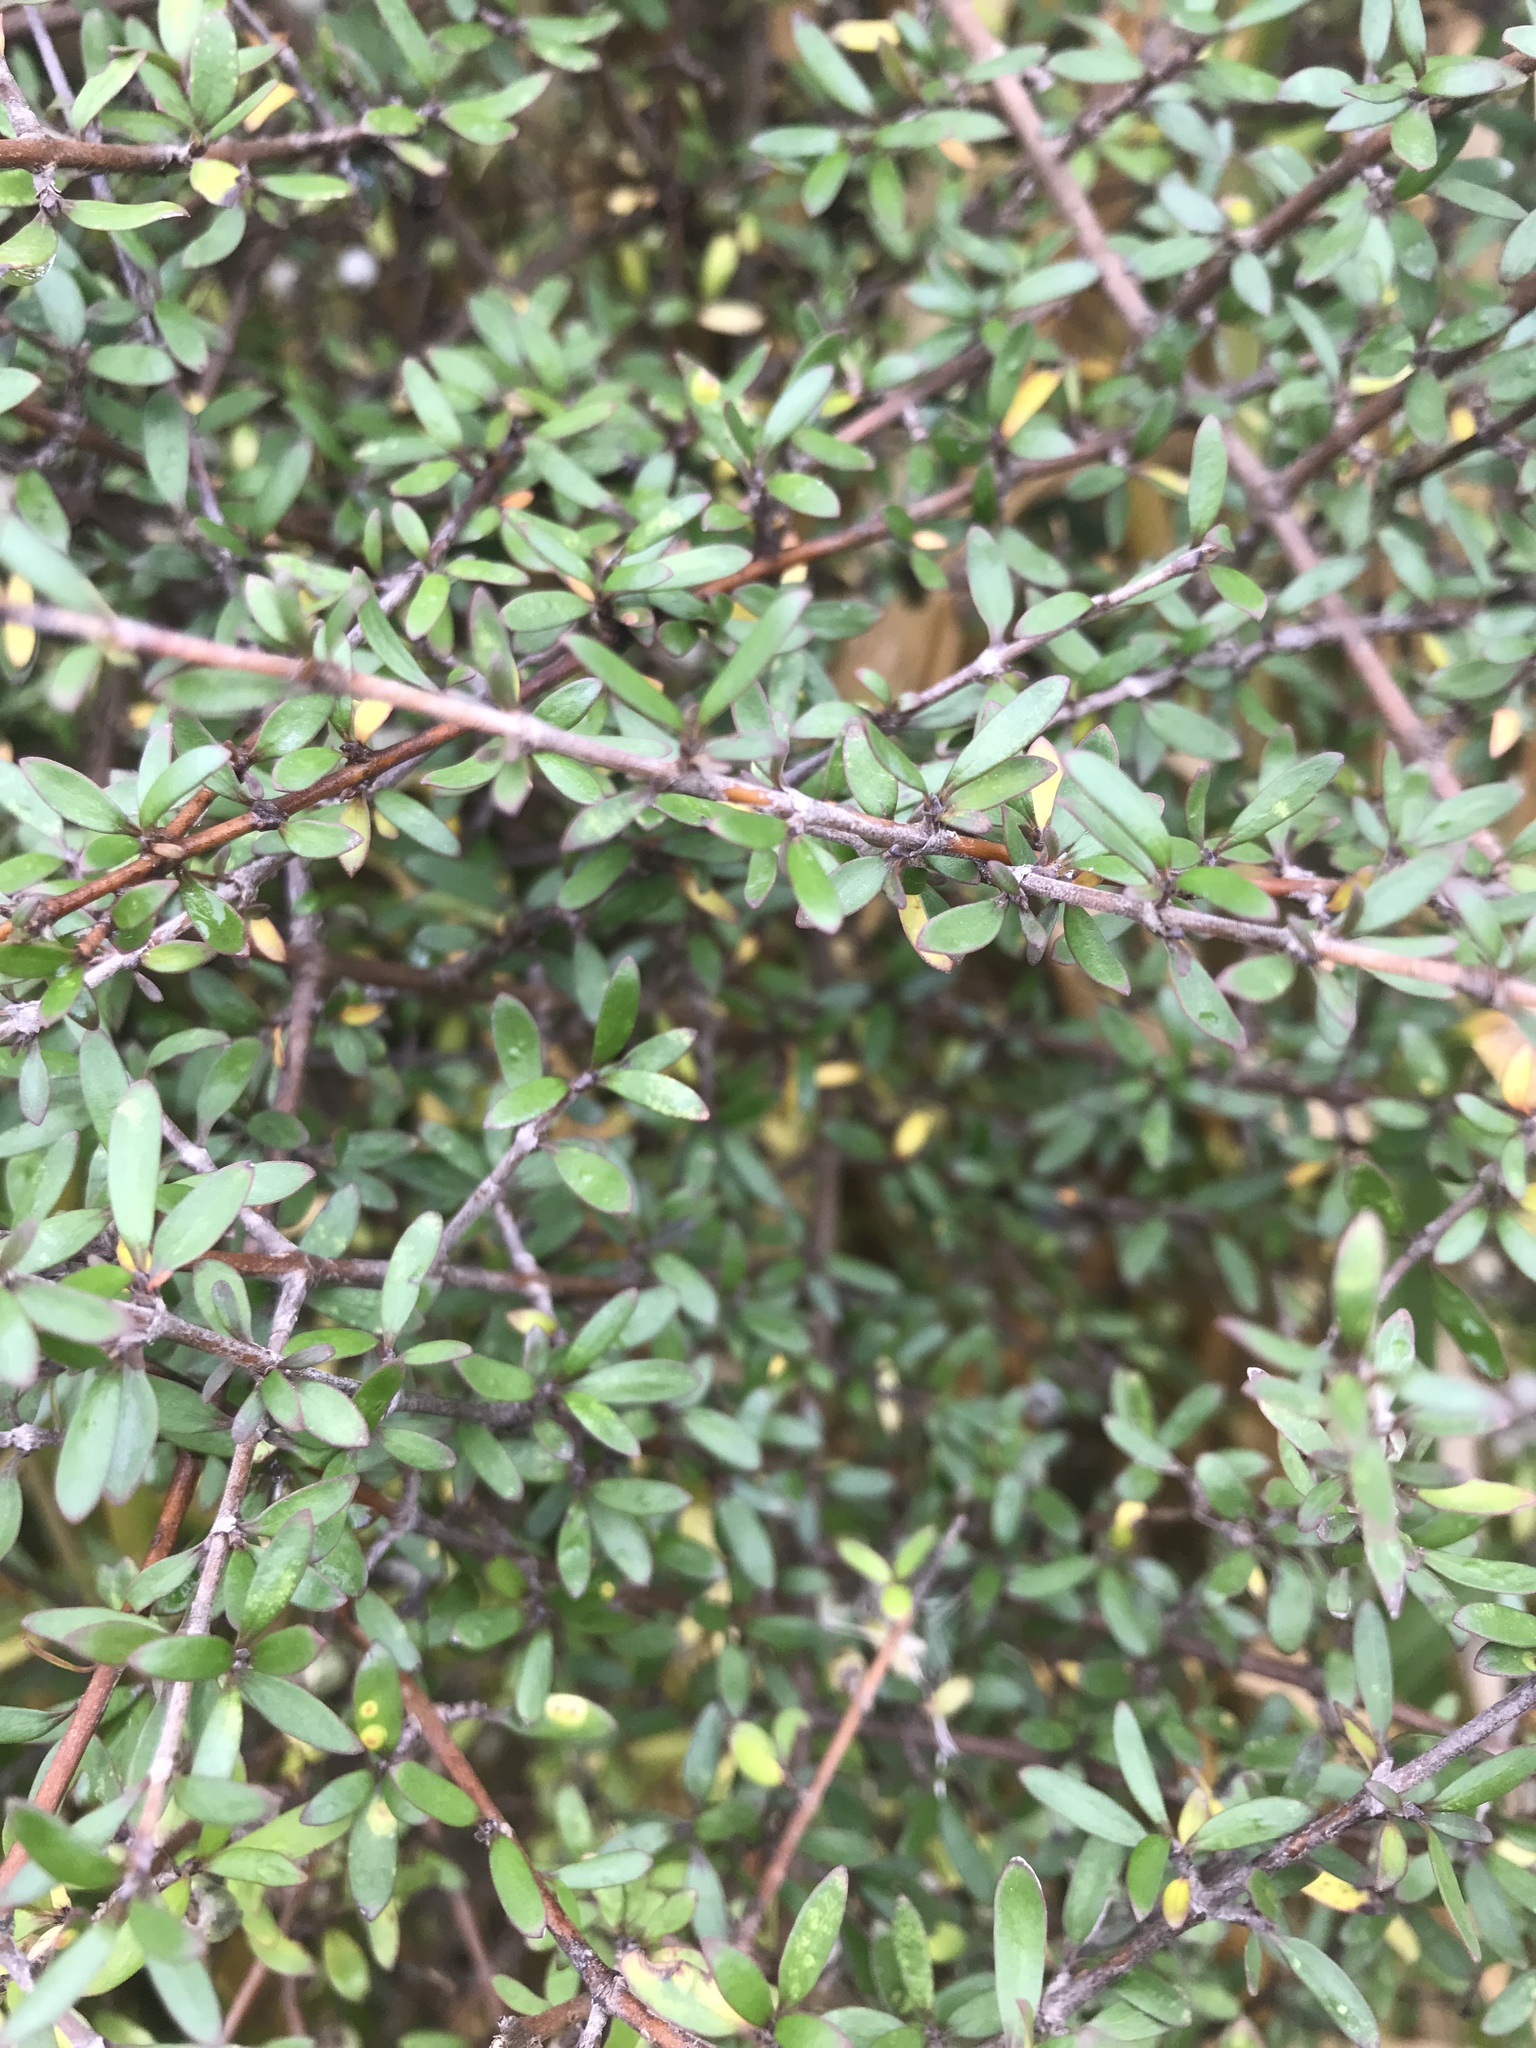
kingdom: Plantae
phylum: Tracheophyta
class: Magnoliopsida
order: Gentianales
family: Rubiaceae
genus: Coprosma
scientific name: Coprosma propinqua
